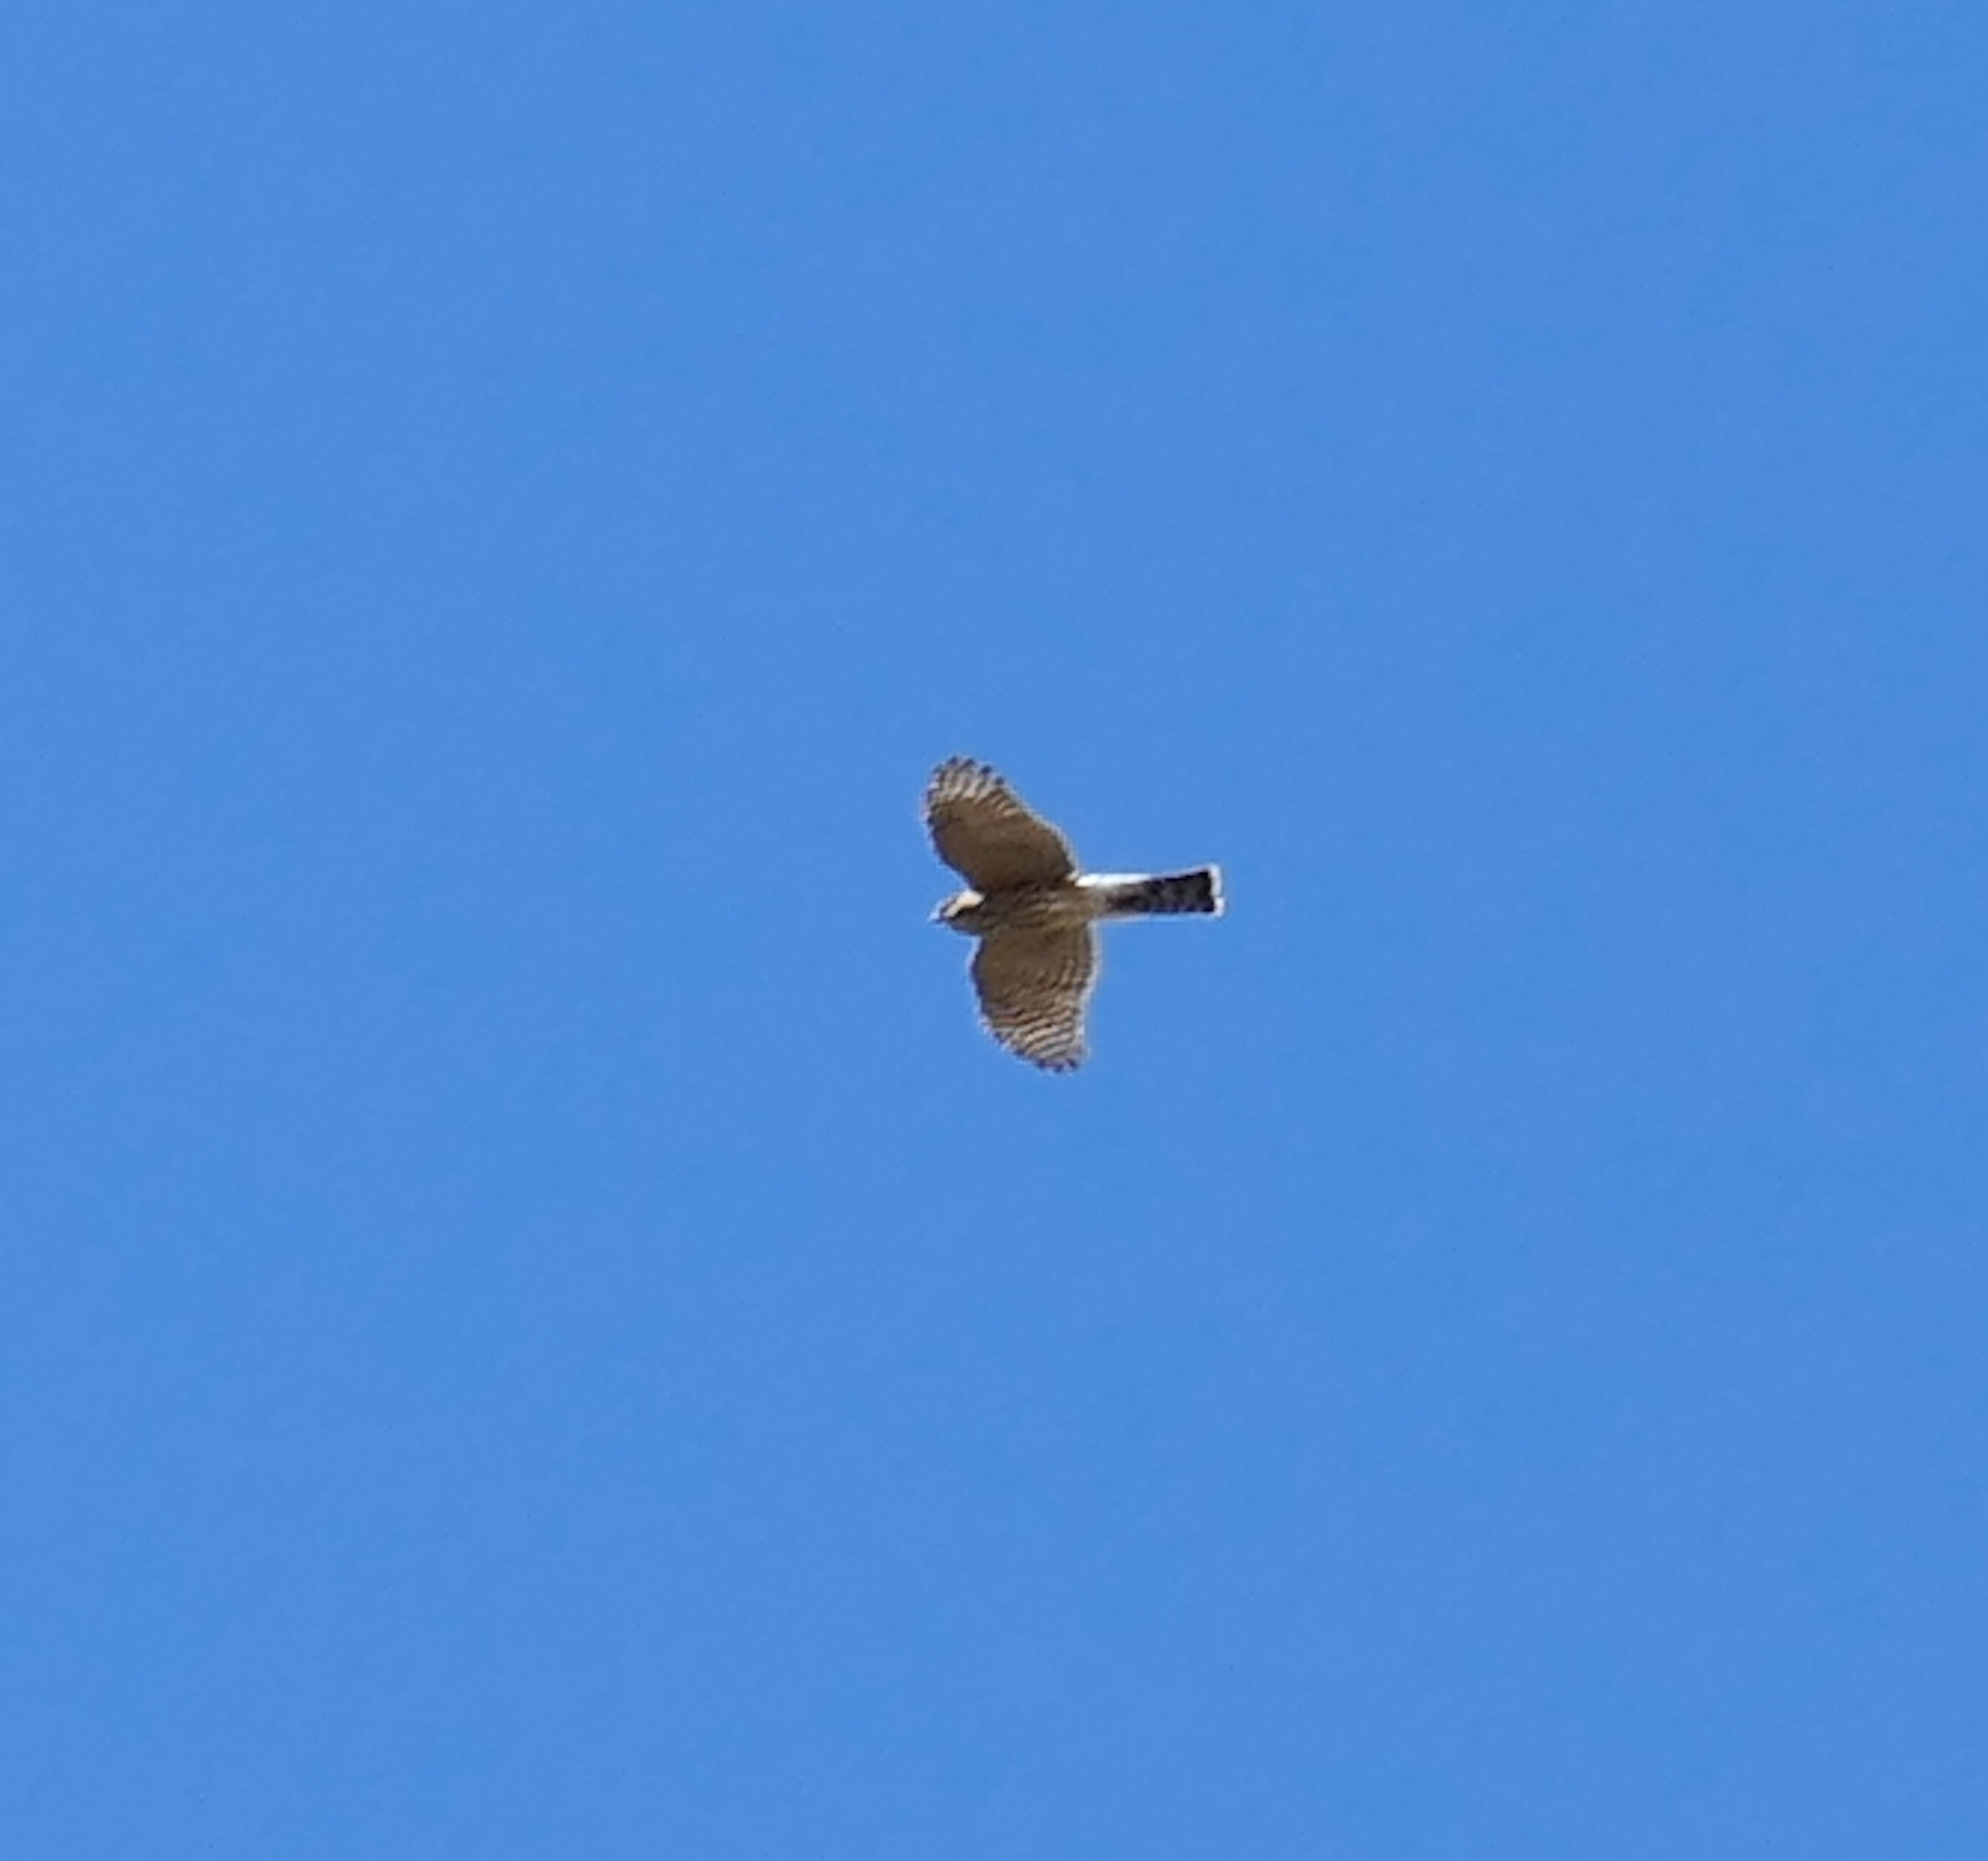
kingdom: Animalia
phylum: Chordata
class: Aves
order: Accipitriformes
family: Accipitridae
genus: Accipiter
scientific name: Accipiter striatus
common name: Sharp-shinned hawk
